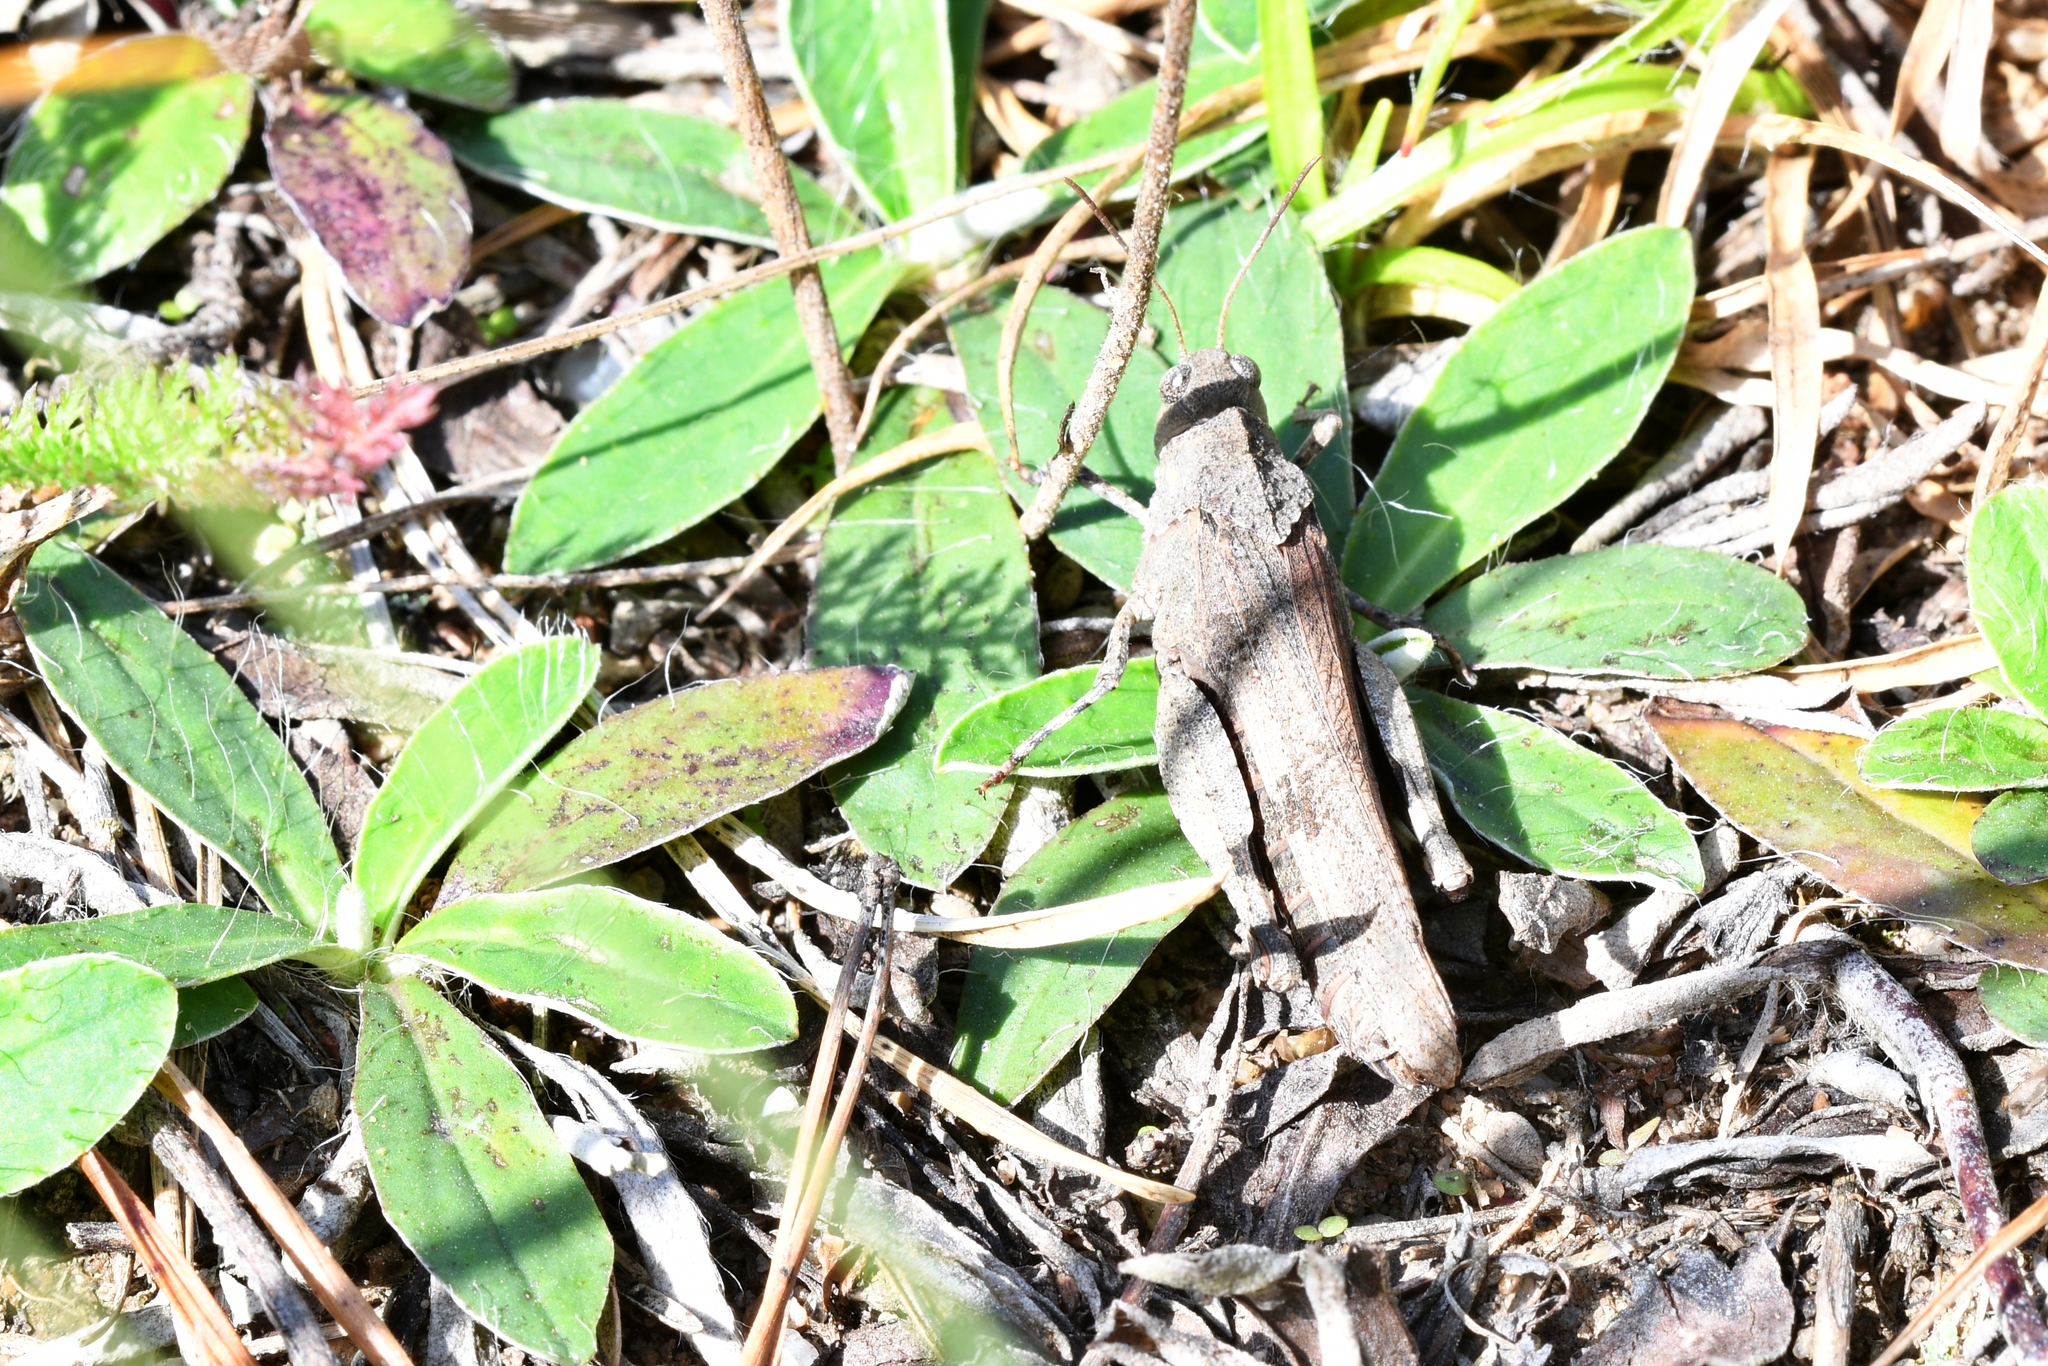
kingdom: Animalia
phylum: Arthropoda
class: Insecta
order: Orthoptera
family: Acrididae
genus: Oedipoda
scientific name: Oedipoda caerulescens
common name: Blue-winged grasshopper
